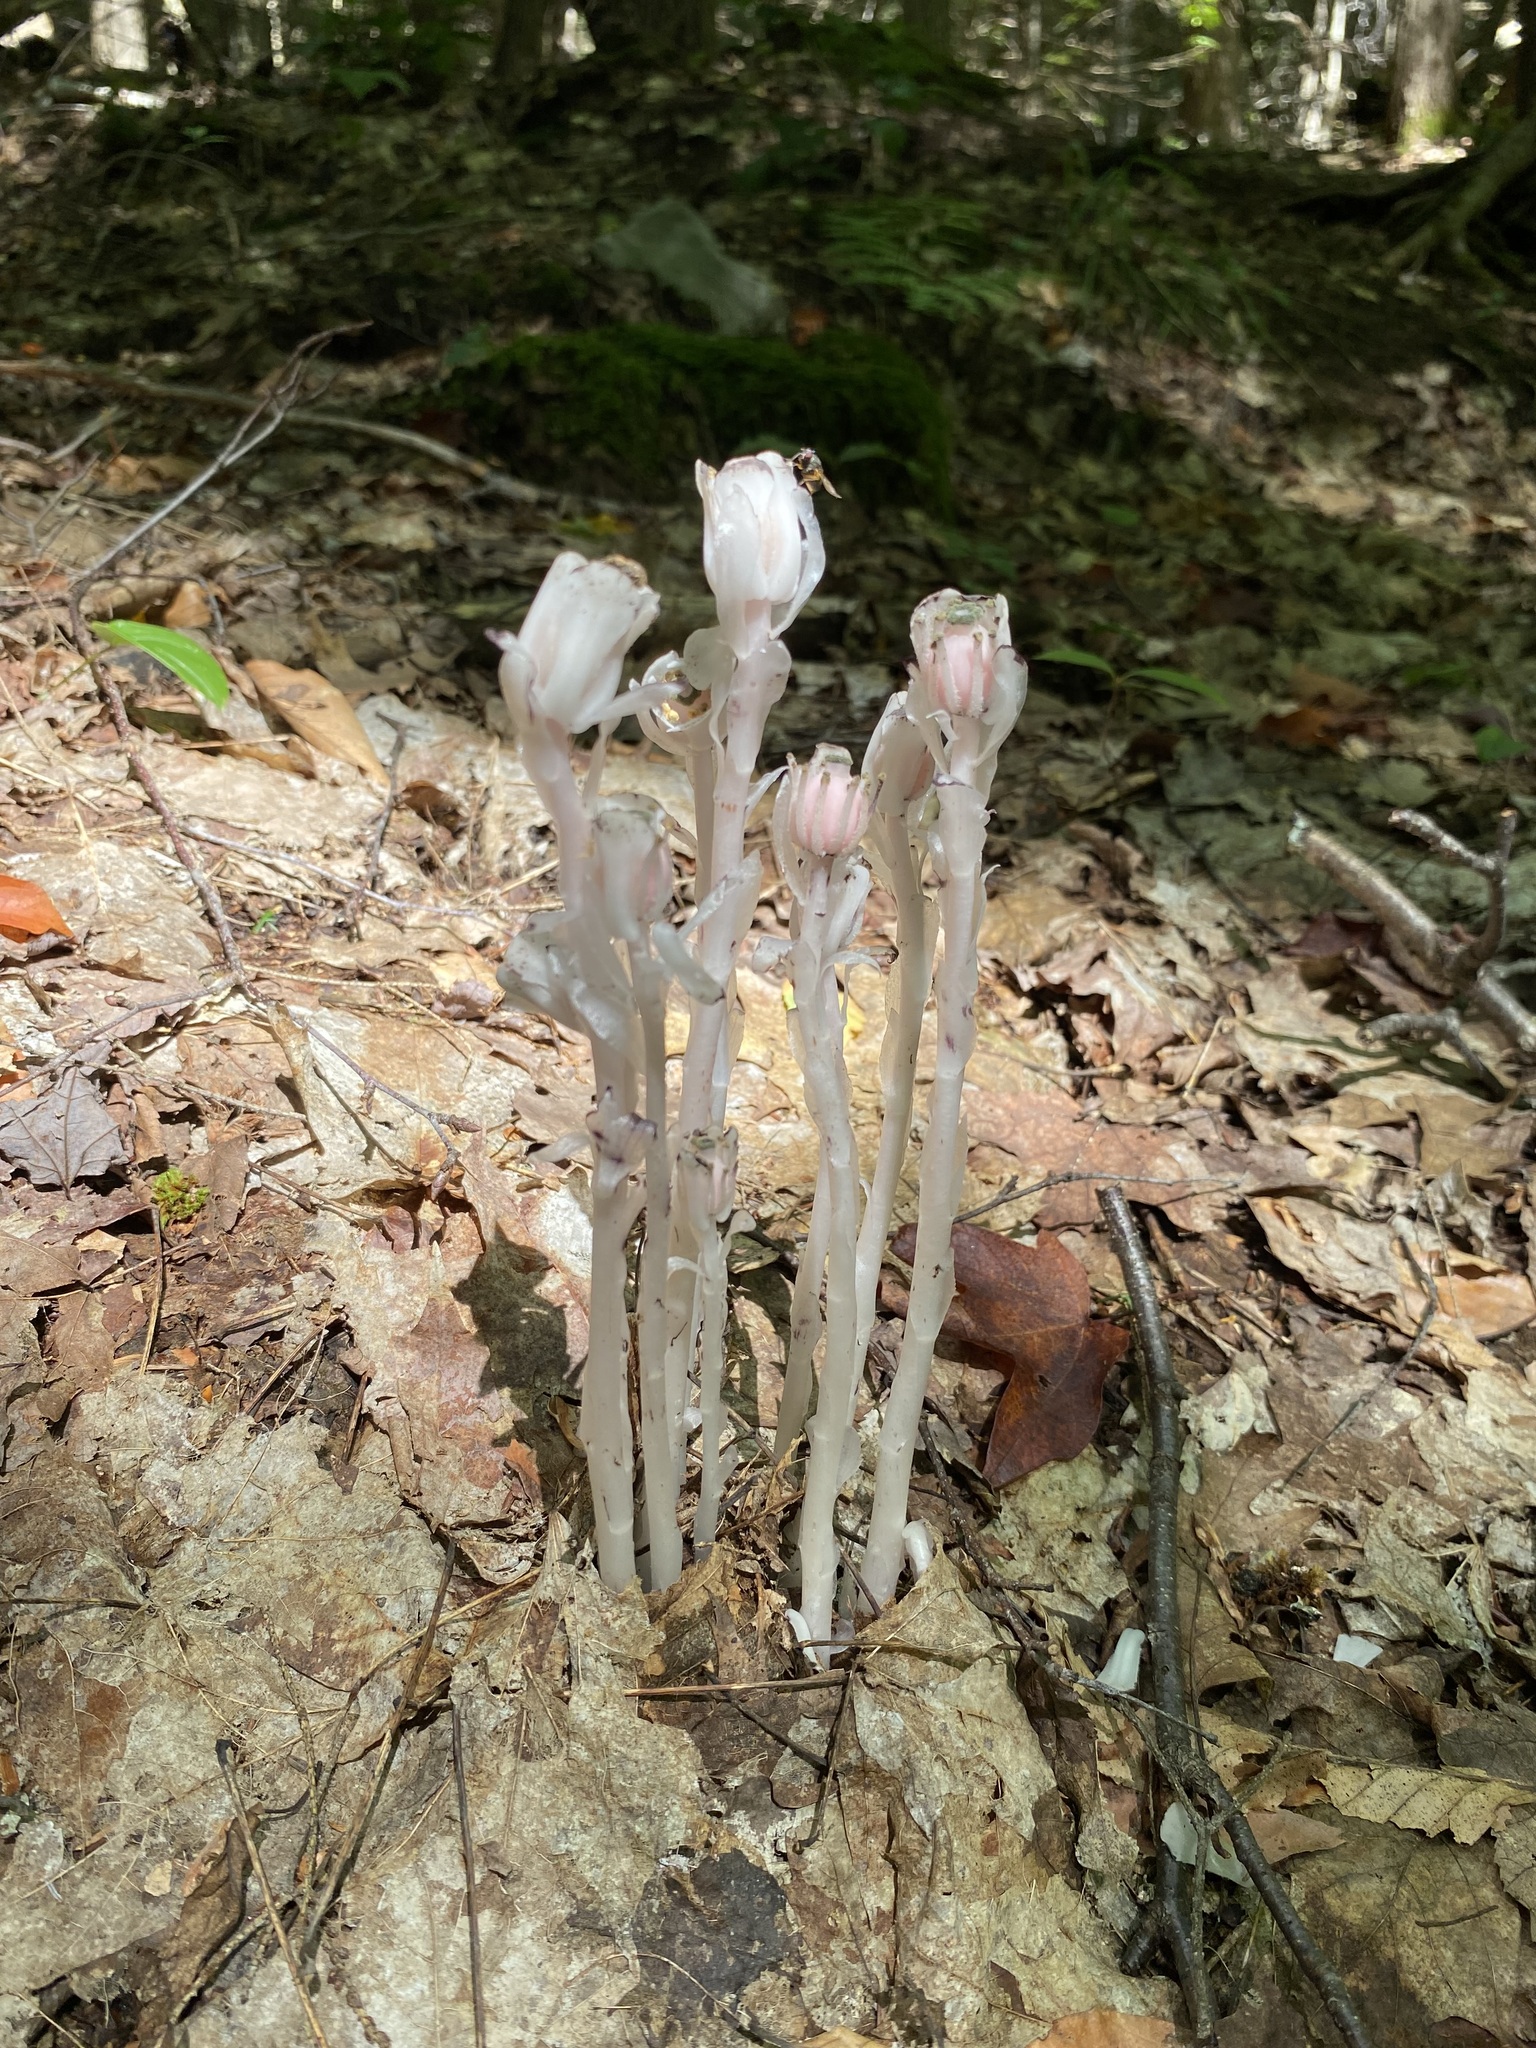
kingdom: Plantae
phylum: Tracheophyta
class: Magnoliopsida
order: Ericales
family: Ericaceae
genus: Monotropa
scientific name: Monotropa uniflora
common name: Convulsion root
